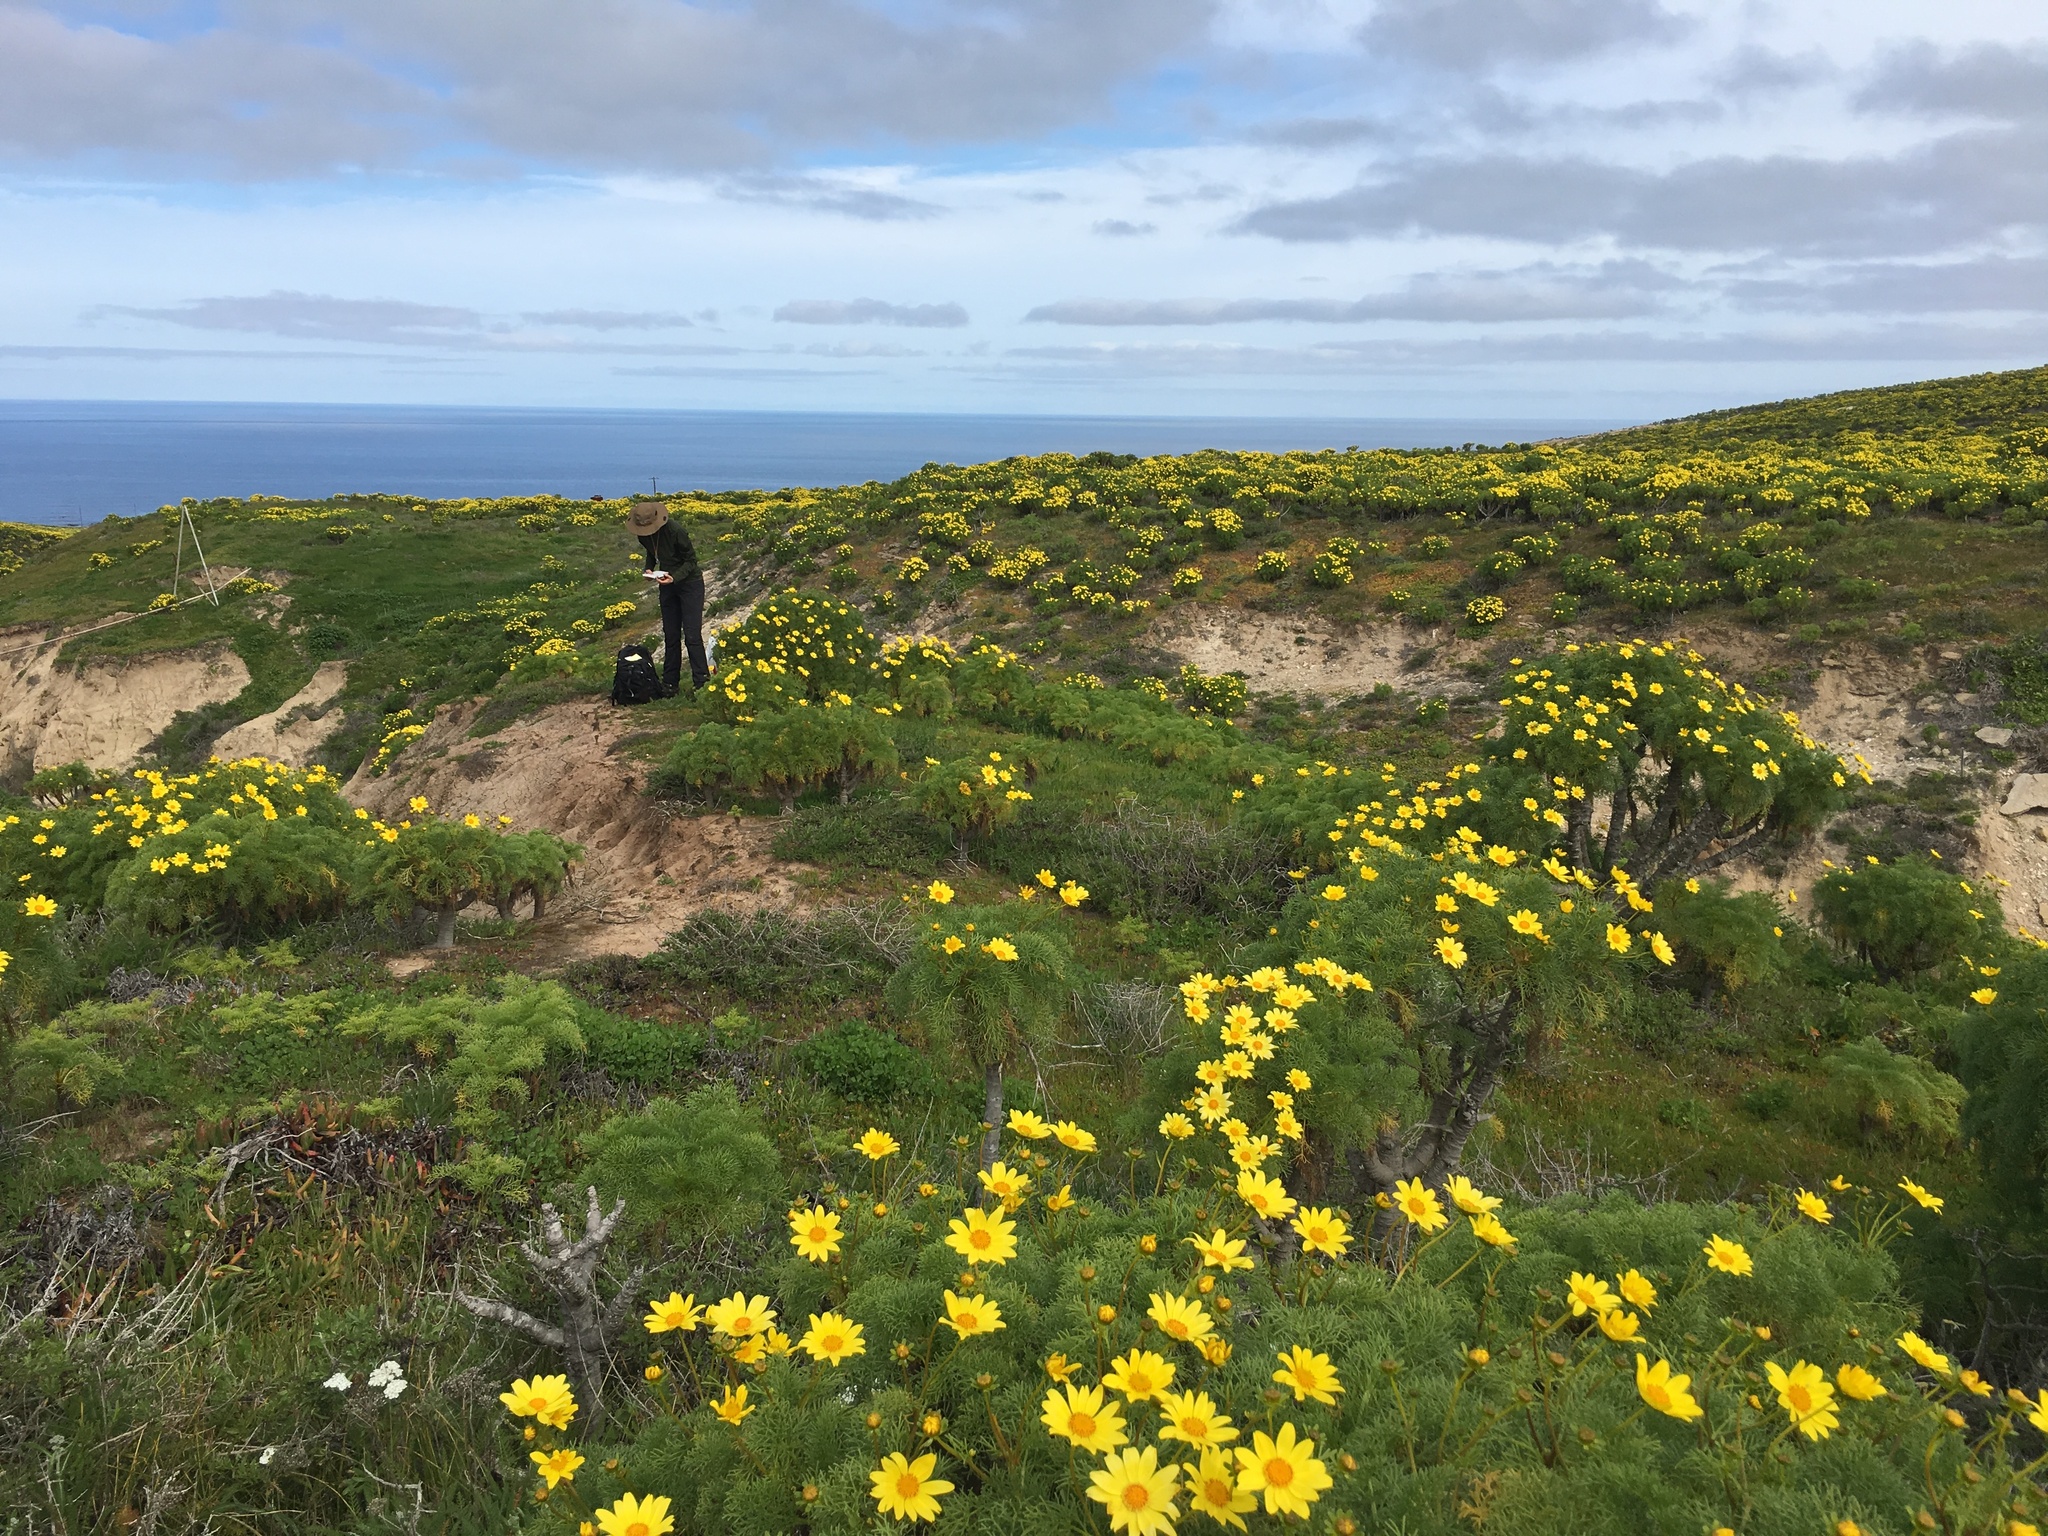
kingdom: Plantae
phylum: Tracheophyta
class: Magnoliopsida
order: Asterales
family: Asteraceae
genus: Coreopsis
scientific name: Coreopsis gigantea
